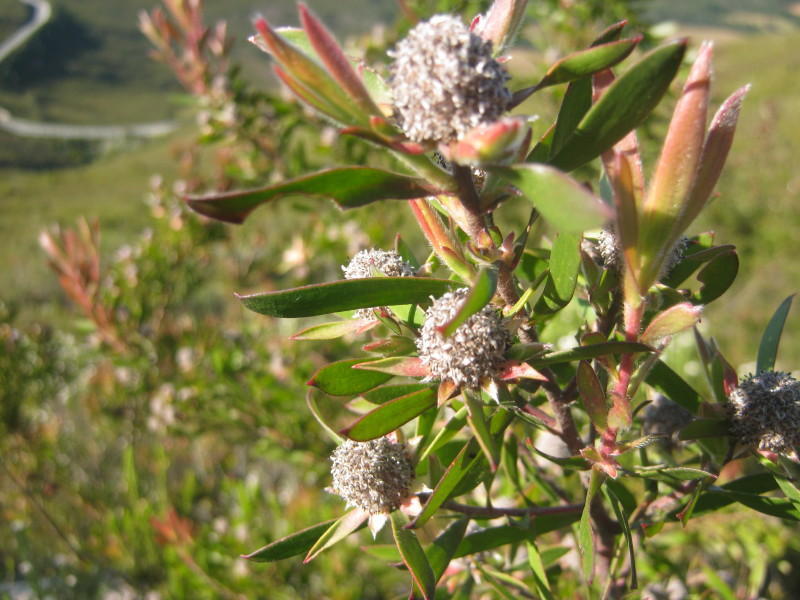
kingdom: Plantae
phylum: Tracheophyta
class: Magnoliopsida
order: Proteales
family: Proteaceae
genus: Leucadendron
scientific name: Leucadendron conicum
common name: Garden route conebush
